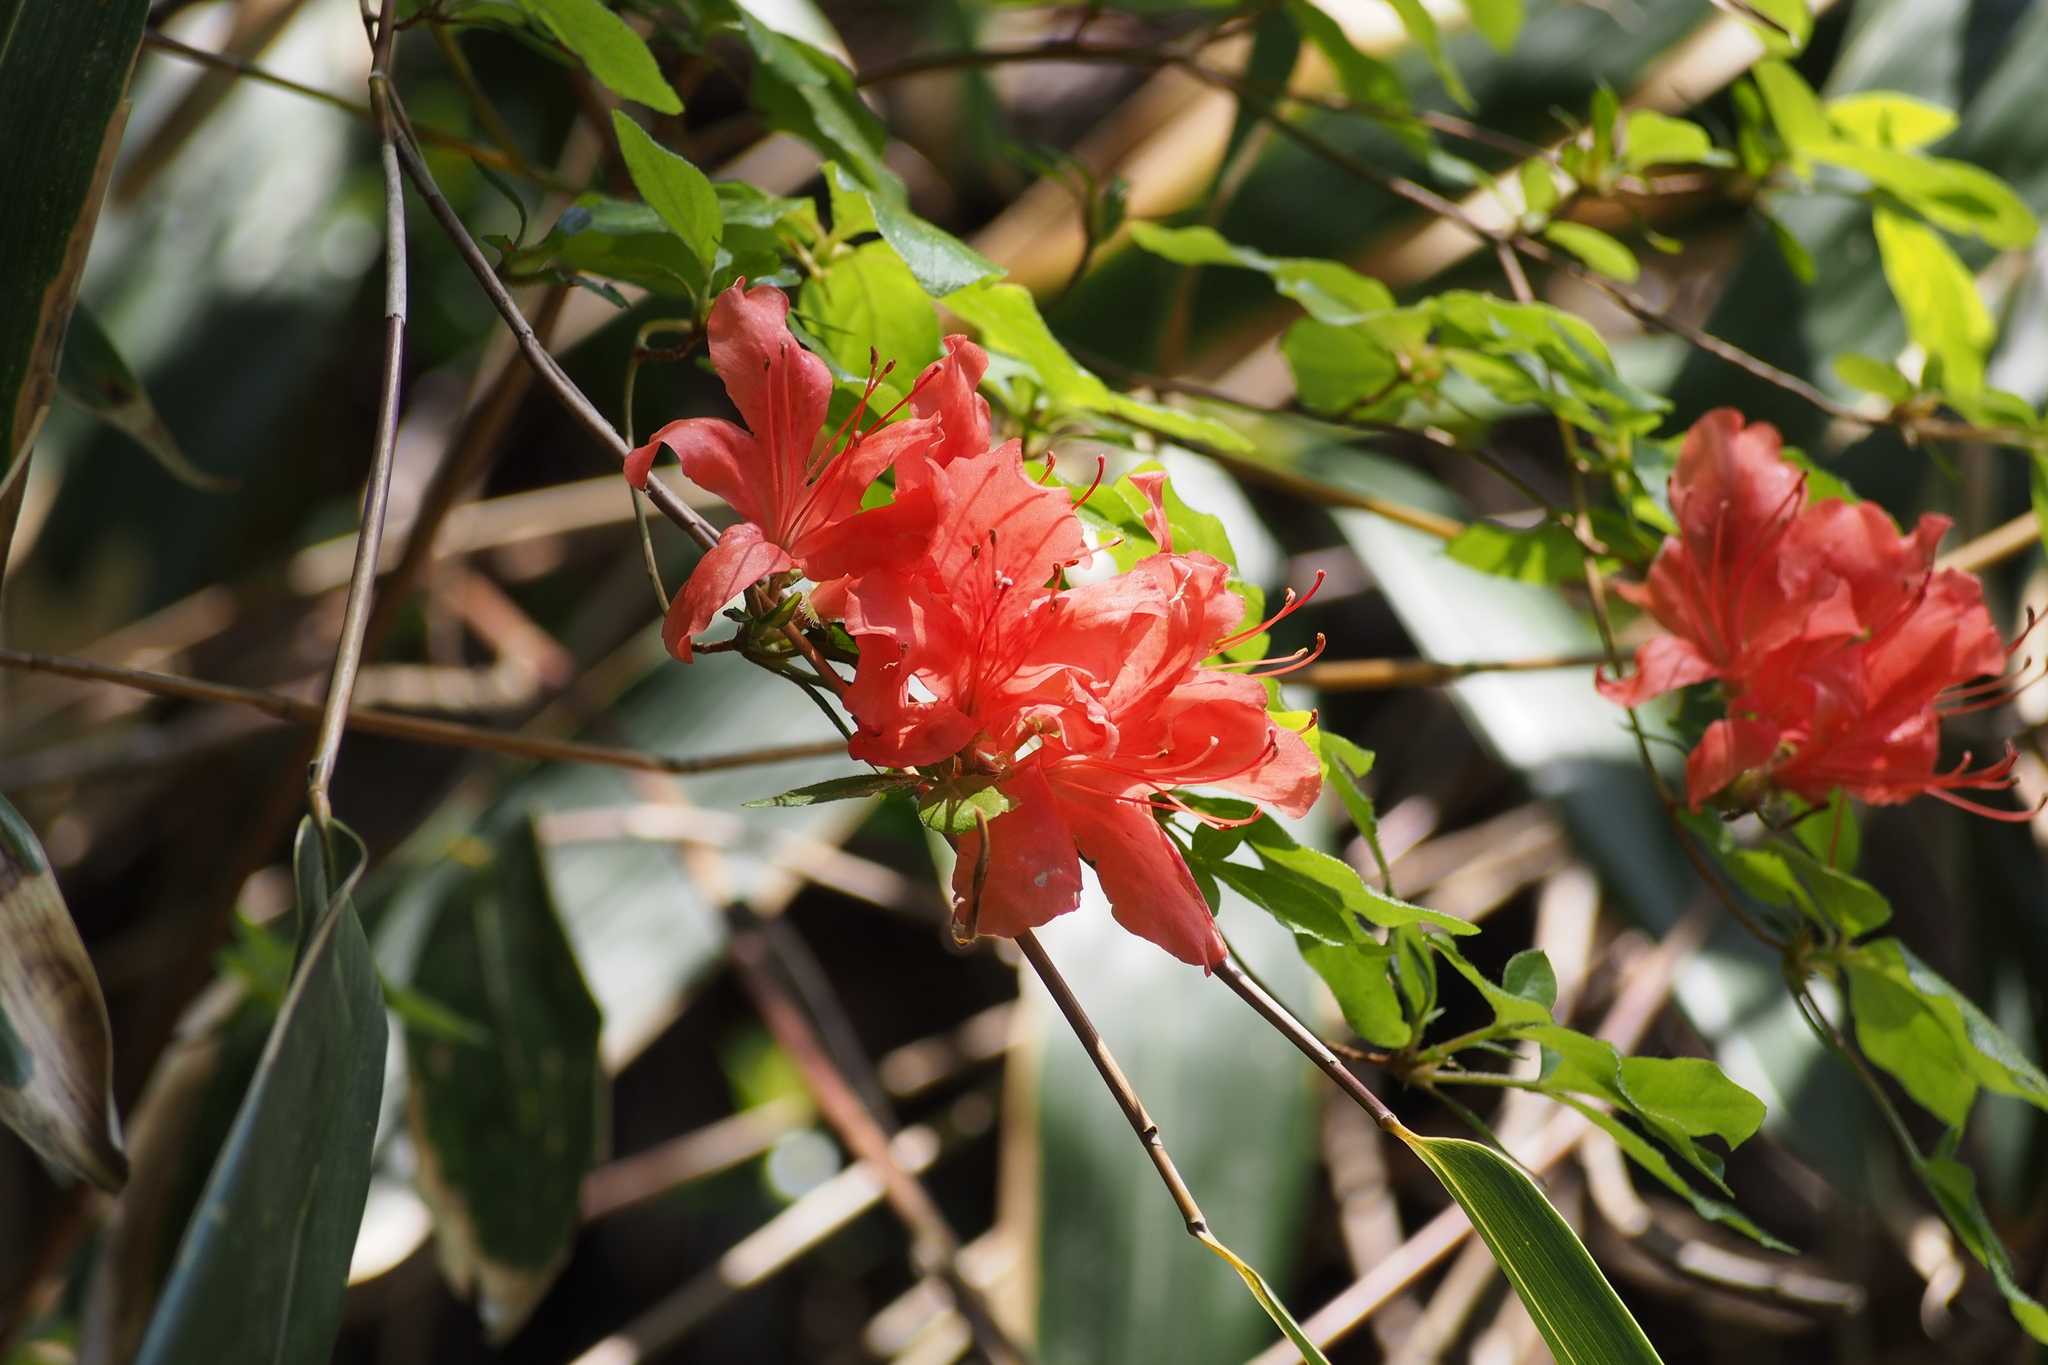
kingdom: Plantae
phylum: Tracheophyta
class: Magnoliopsida
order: Ericales
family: Ericaceae
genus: Rhododendron
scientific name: Rhododendron kaempferi
